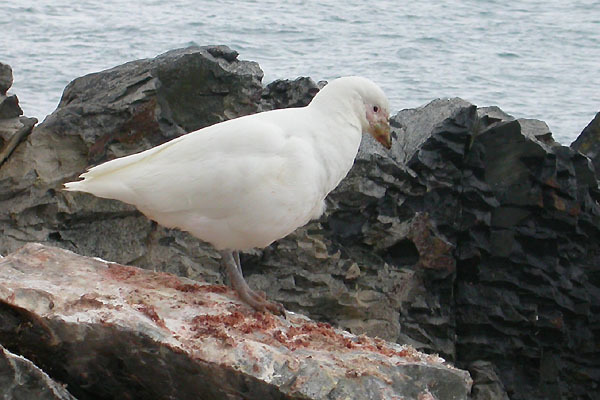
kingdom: Animalia
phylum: Chordata
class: Aves
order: Charadriiformes
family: Chionidae
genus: Chionis
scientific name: Chionis albus
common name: Snowy sheathbill
